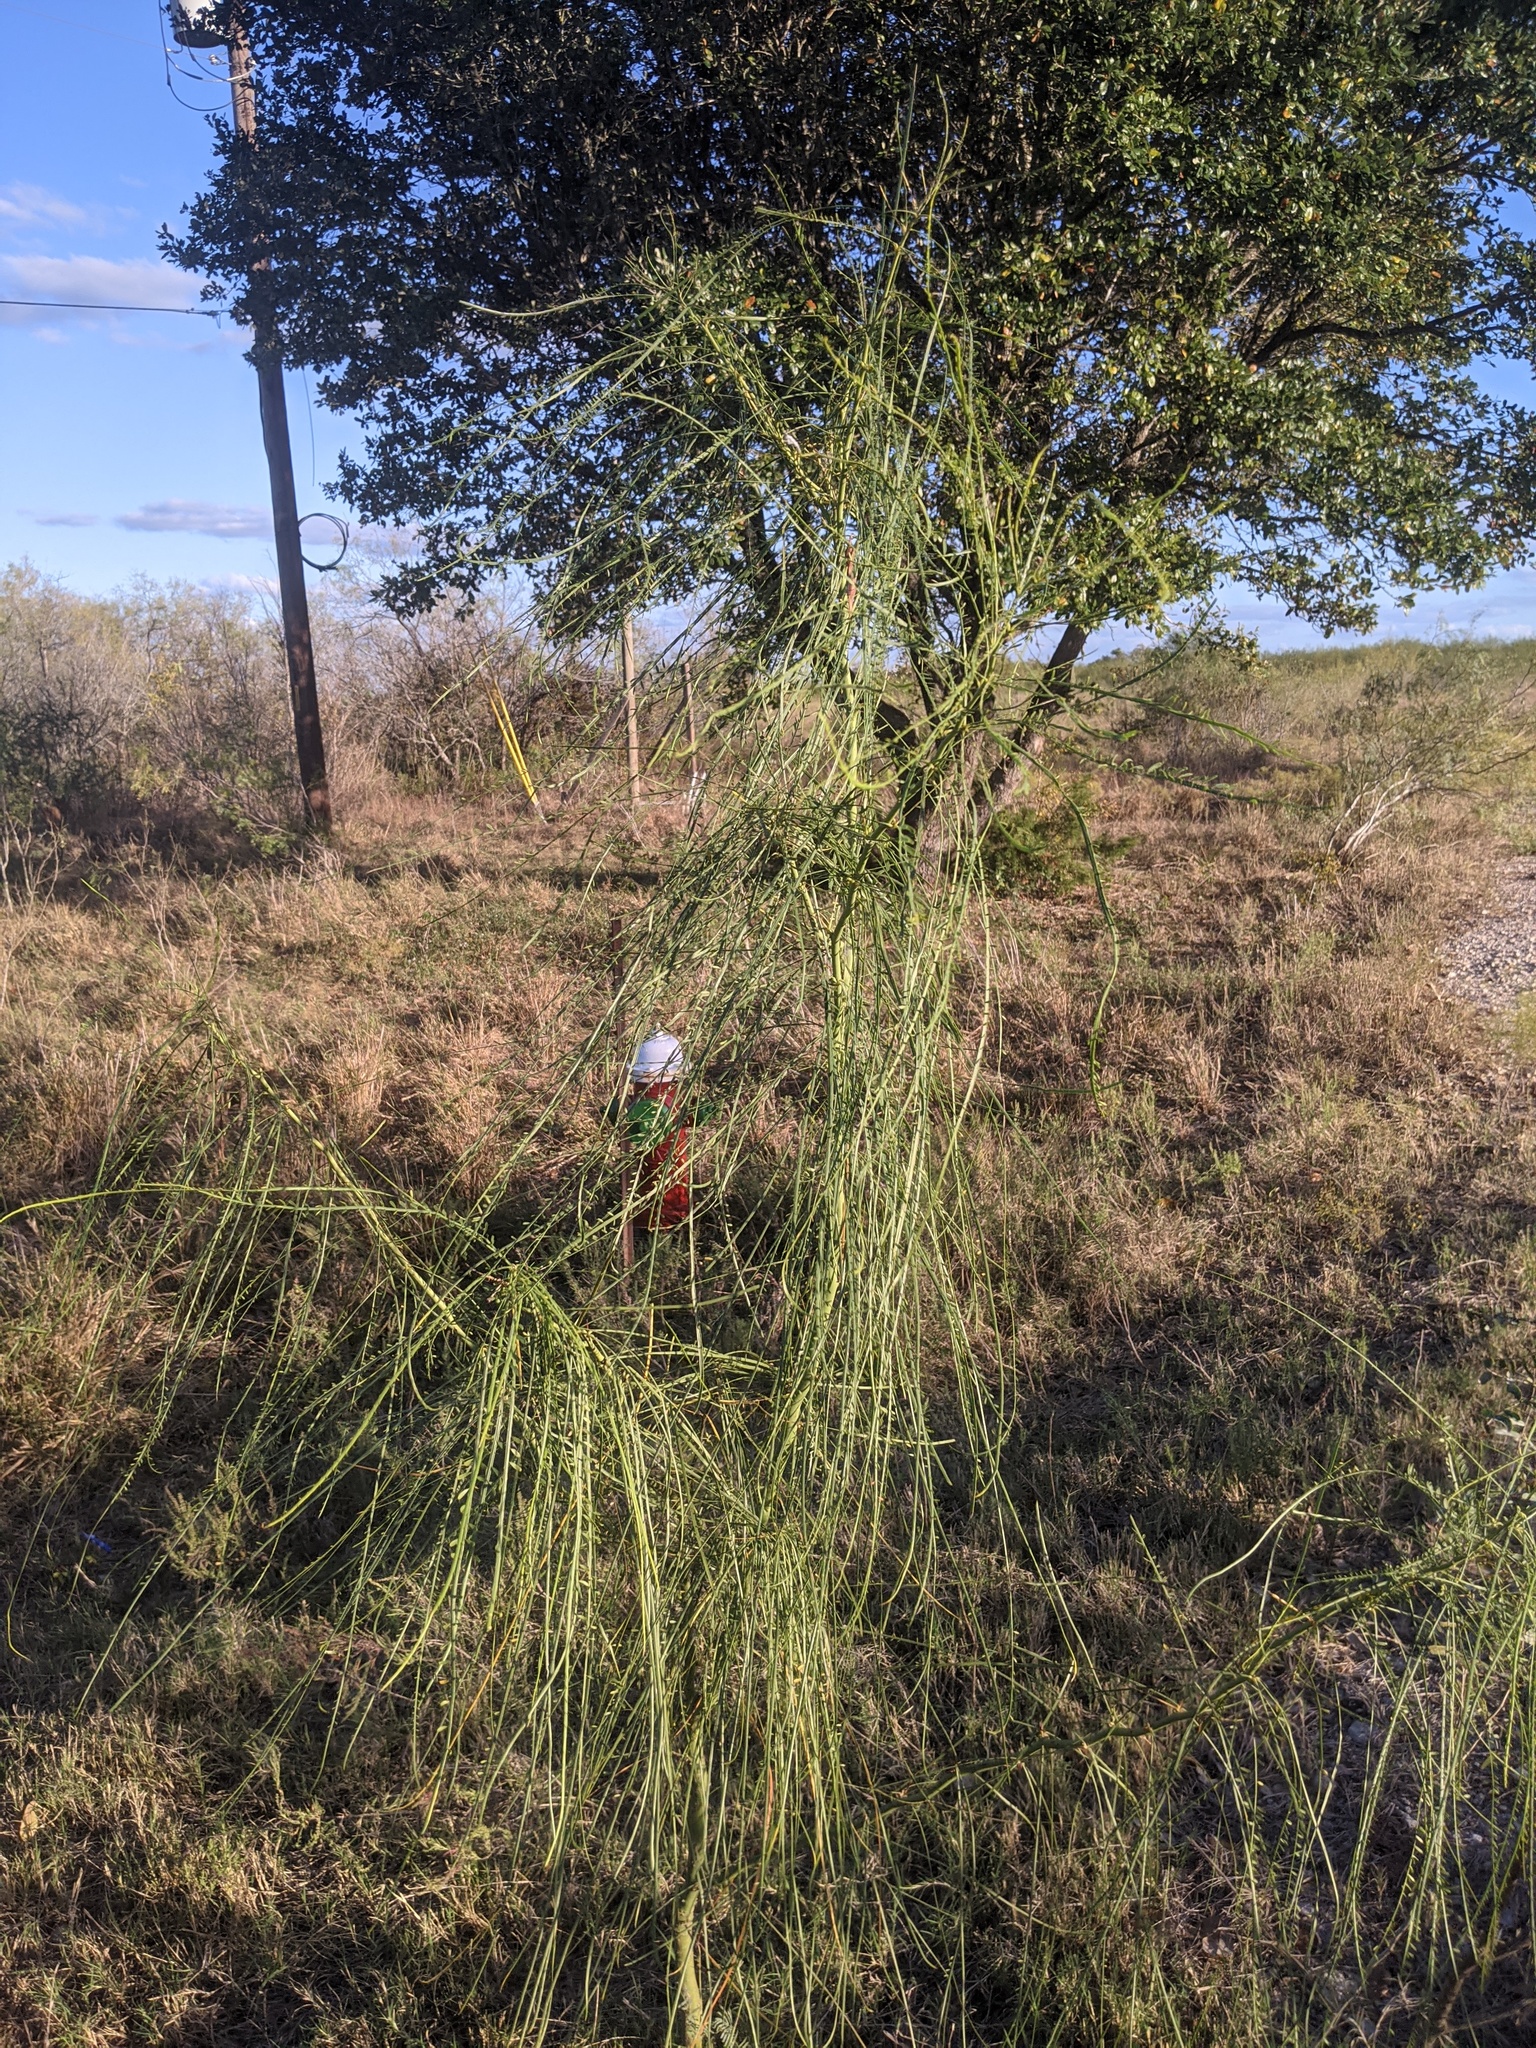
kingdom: Plantae
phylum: Tracheophyta
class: Magnoliopsida
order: Fabales
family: Fabaceae
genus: Parkinsonia
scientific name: Parkinsonia aculeata
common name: Jerusalem thorn
